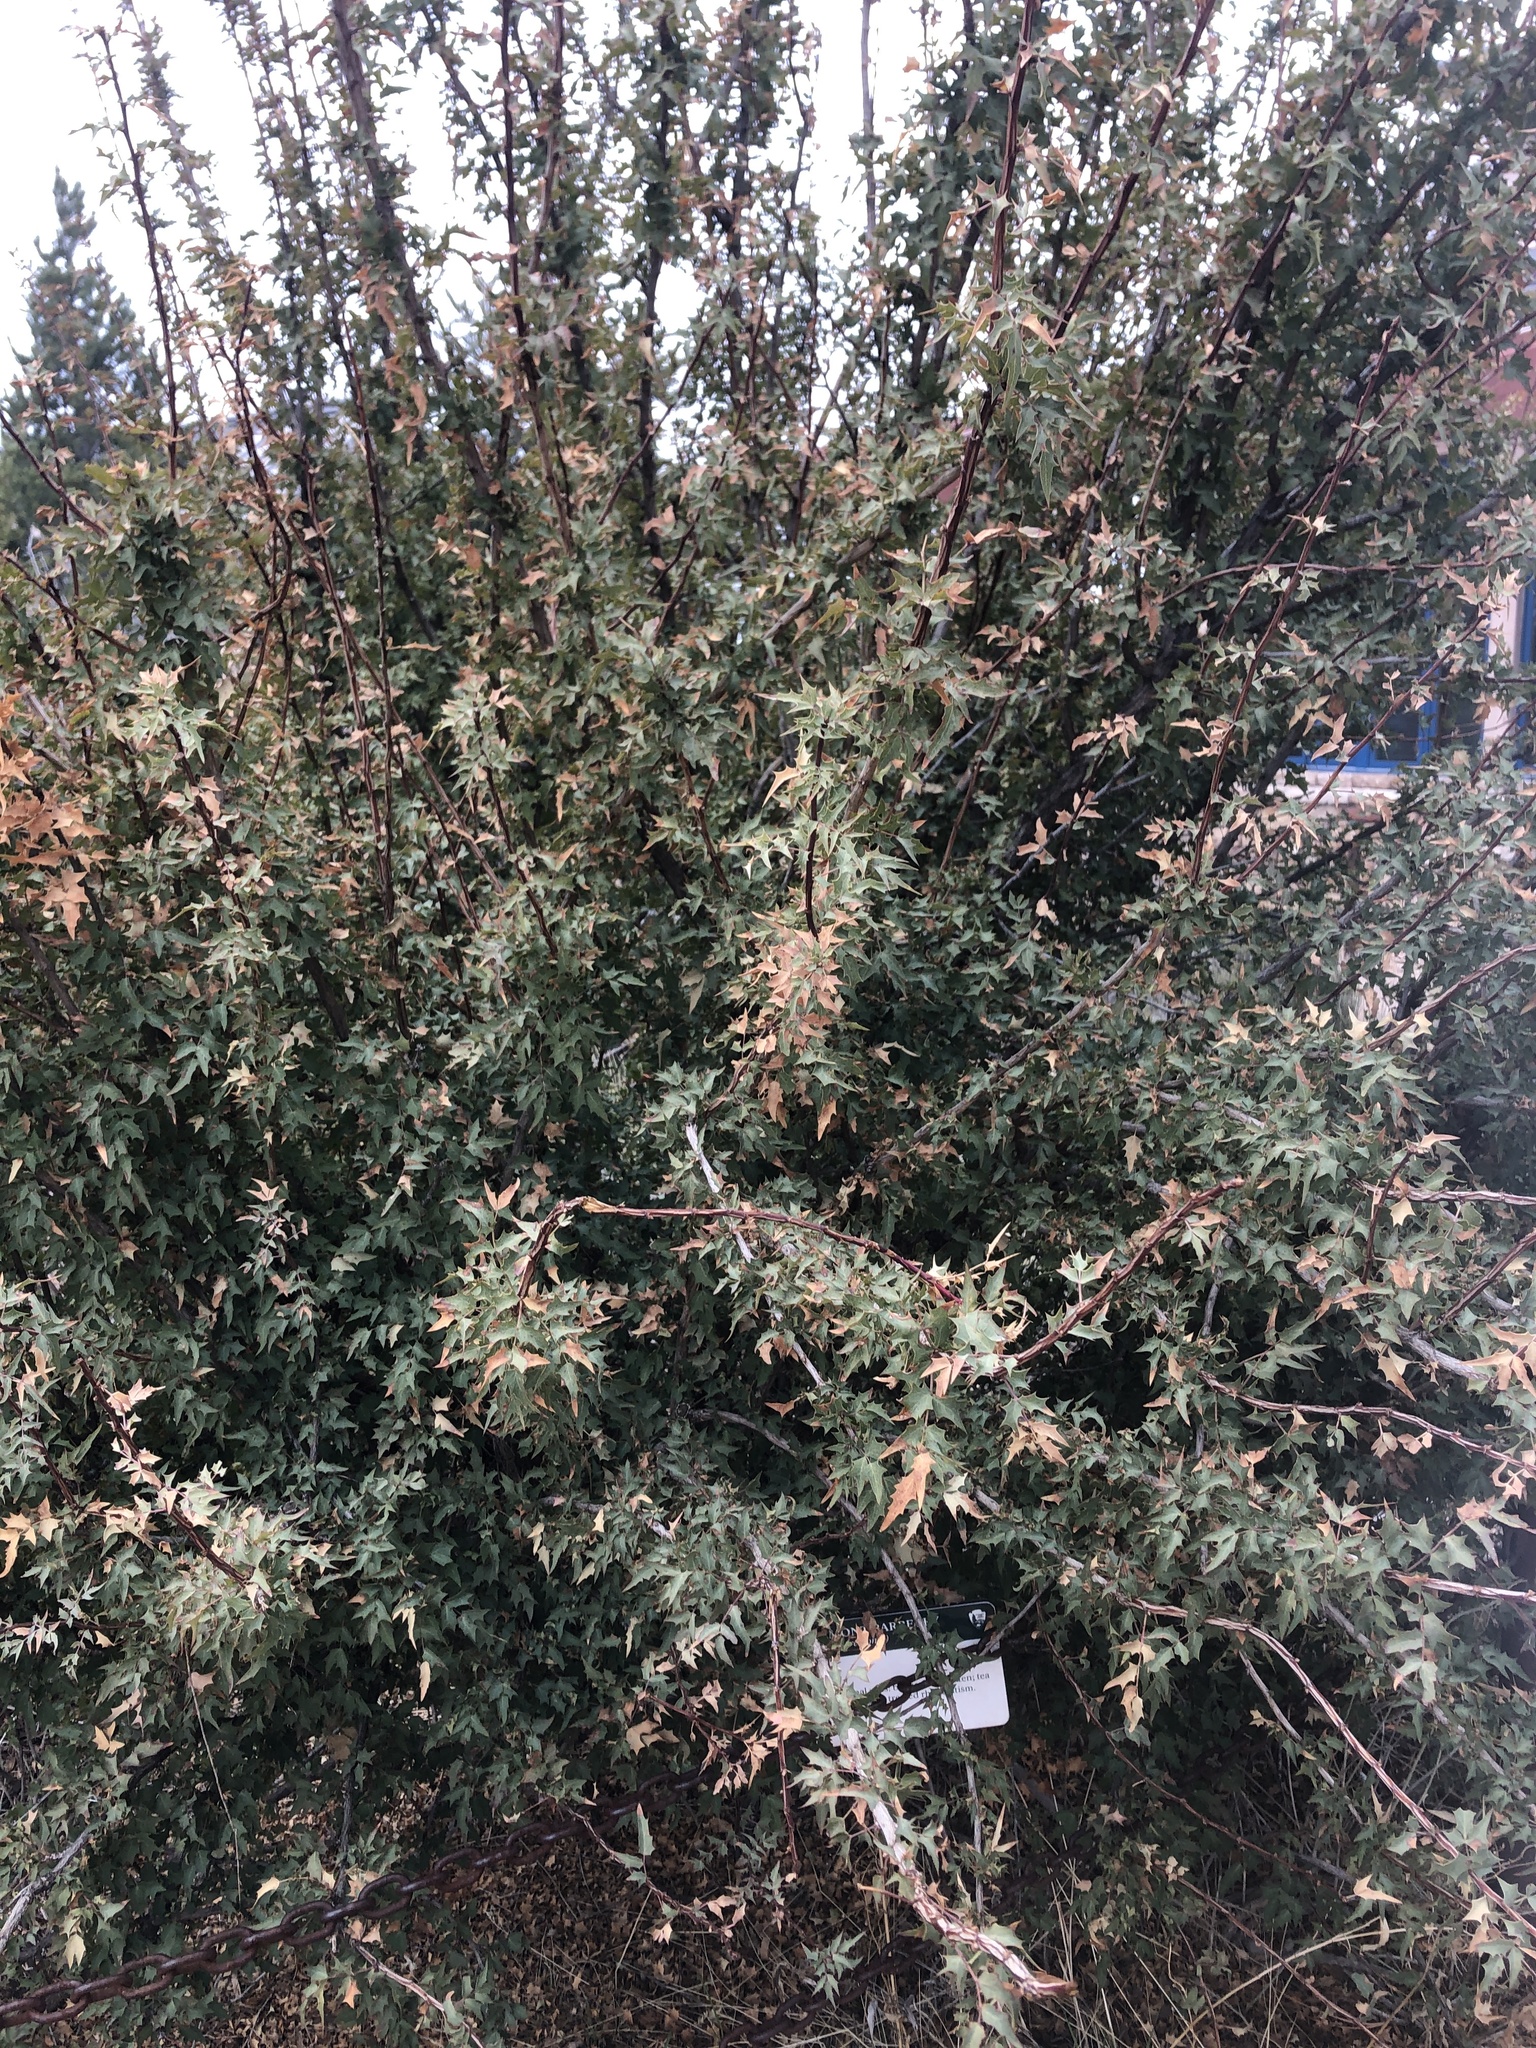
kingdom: Plantae
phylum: Tracheophyta
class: Magnoliopsida
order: Ranunculales
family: Berberidaceae
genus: Alloberberis
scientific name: Alloberberis fremontii
